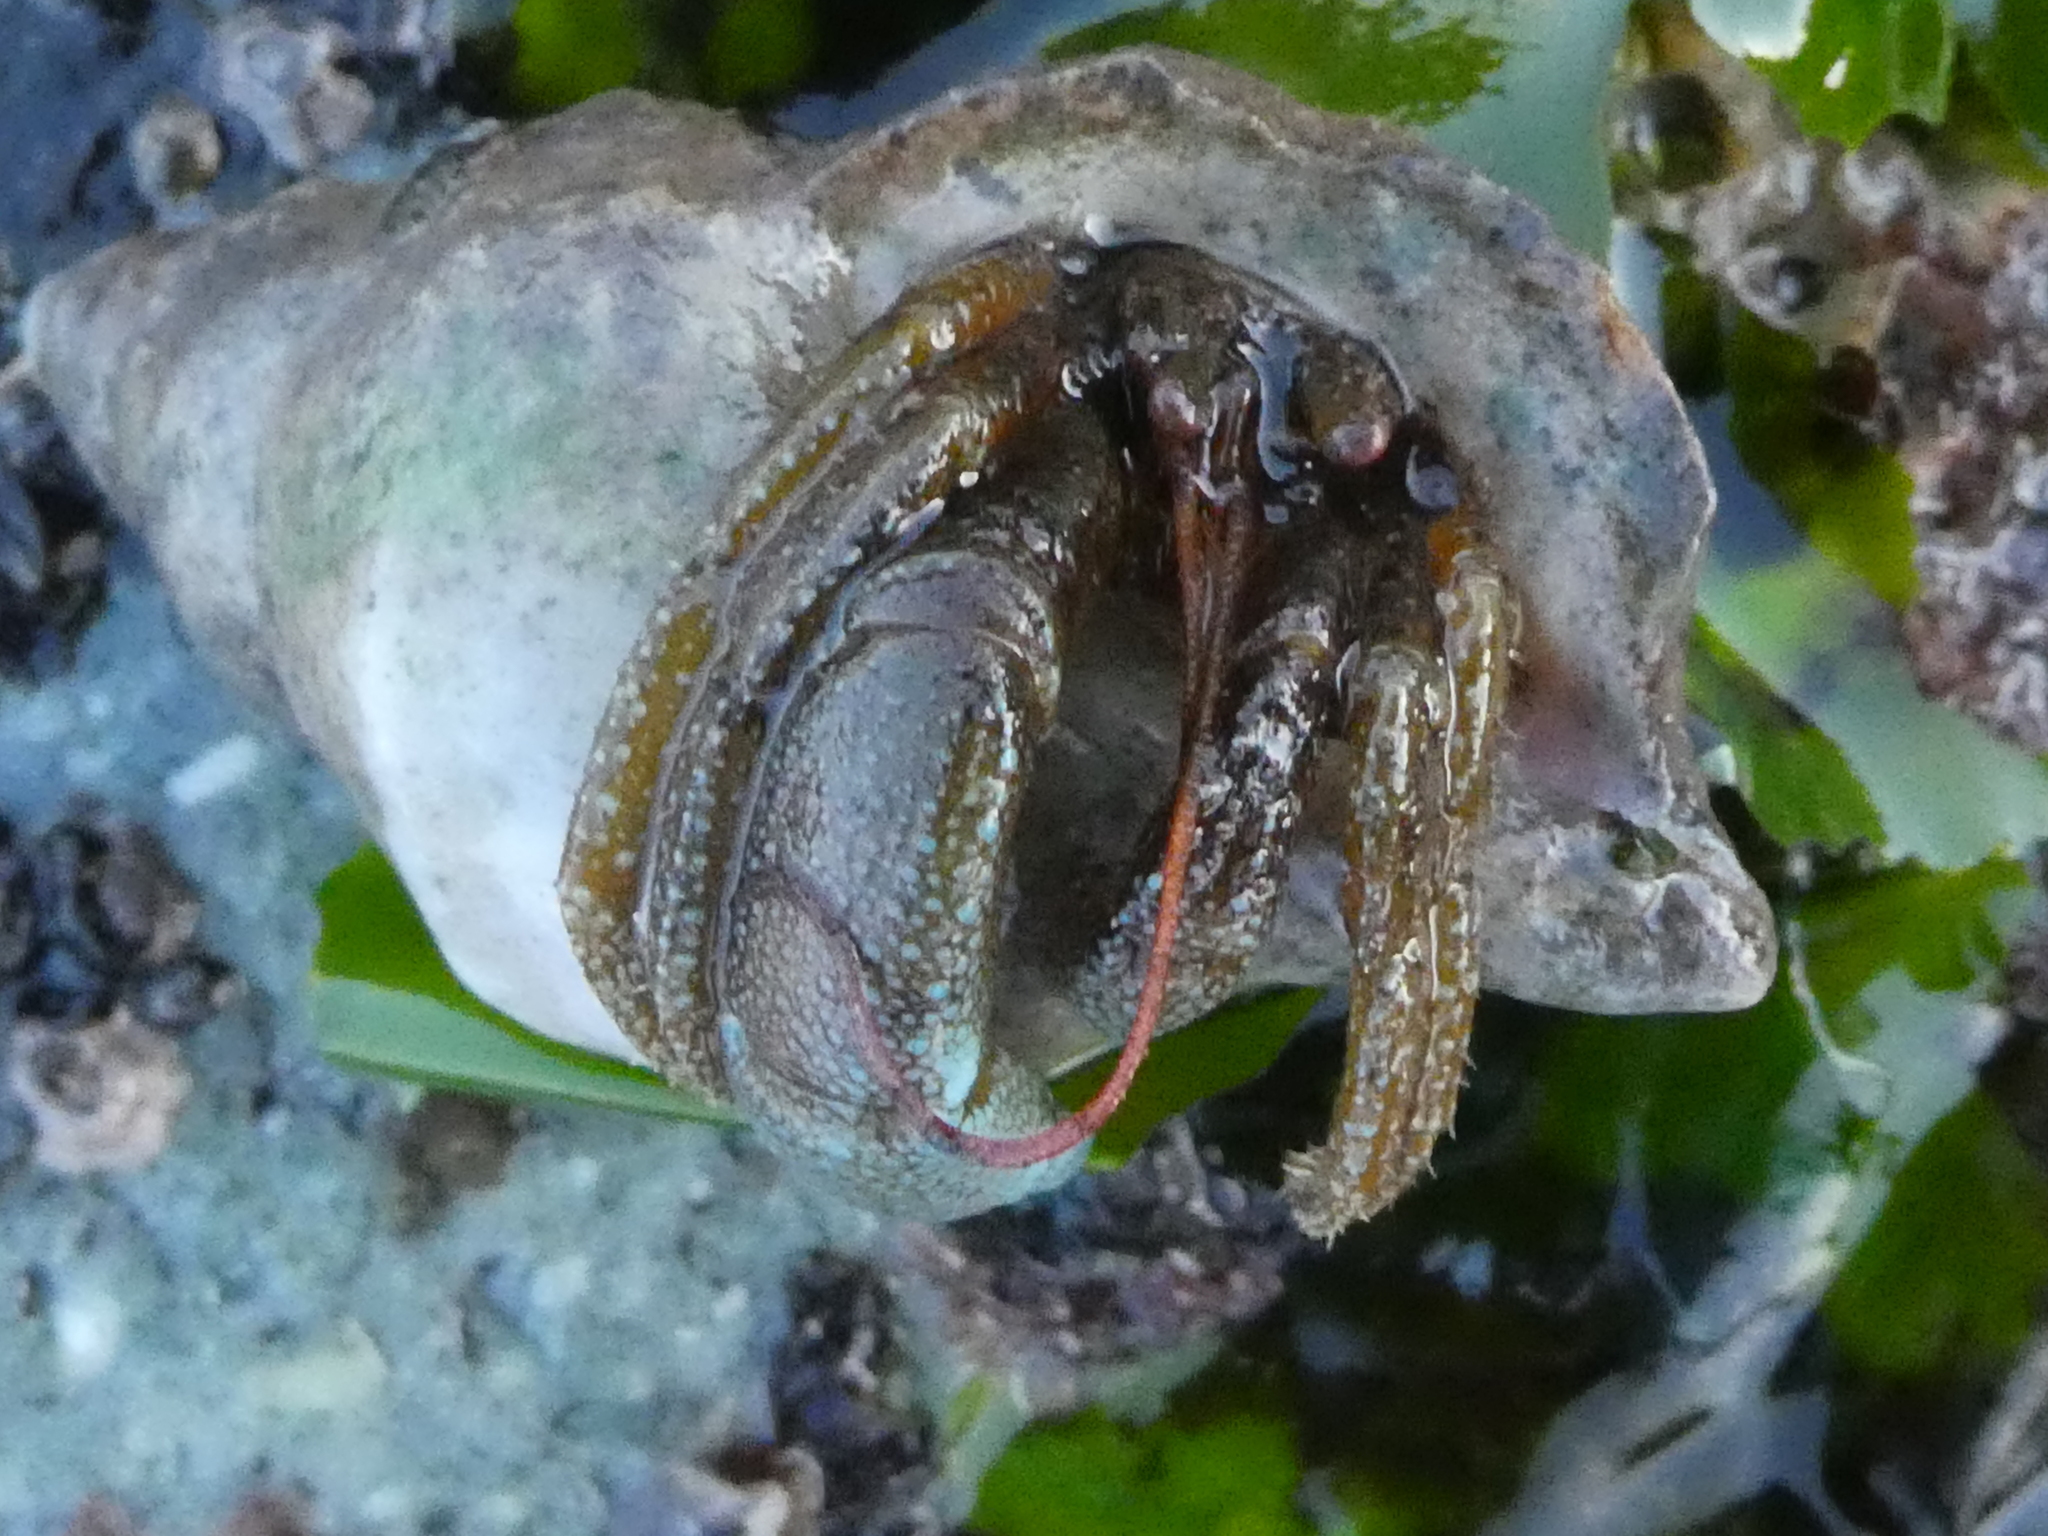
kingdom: Animalia
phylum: Arthropoda
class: Malacostraca
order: Decapoda
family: Paguridae
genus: Pagurus
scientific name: Pagurus granosimanus
